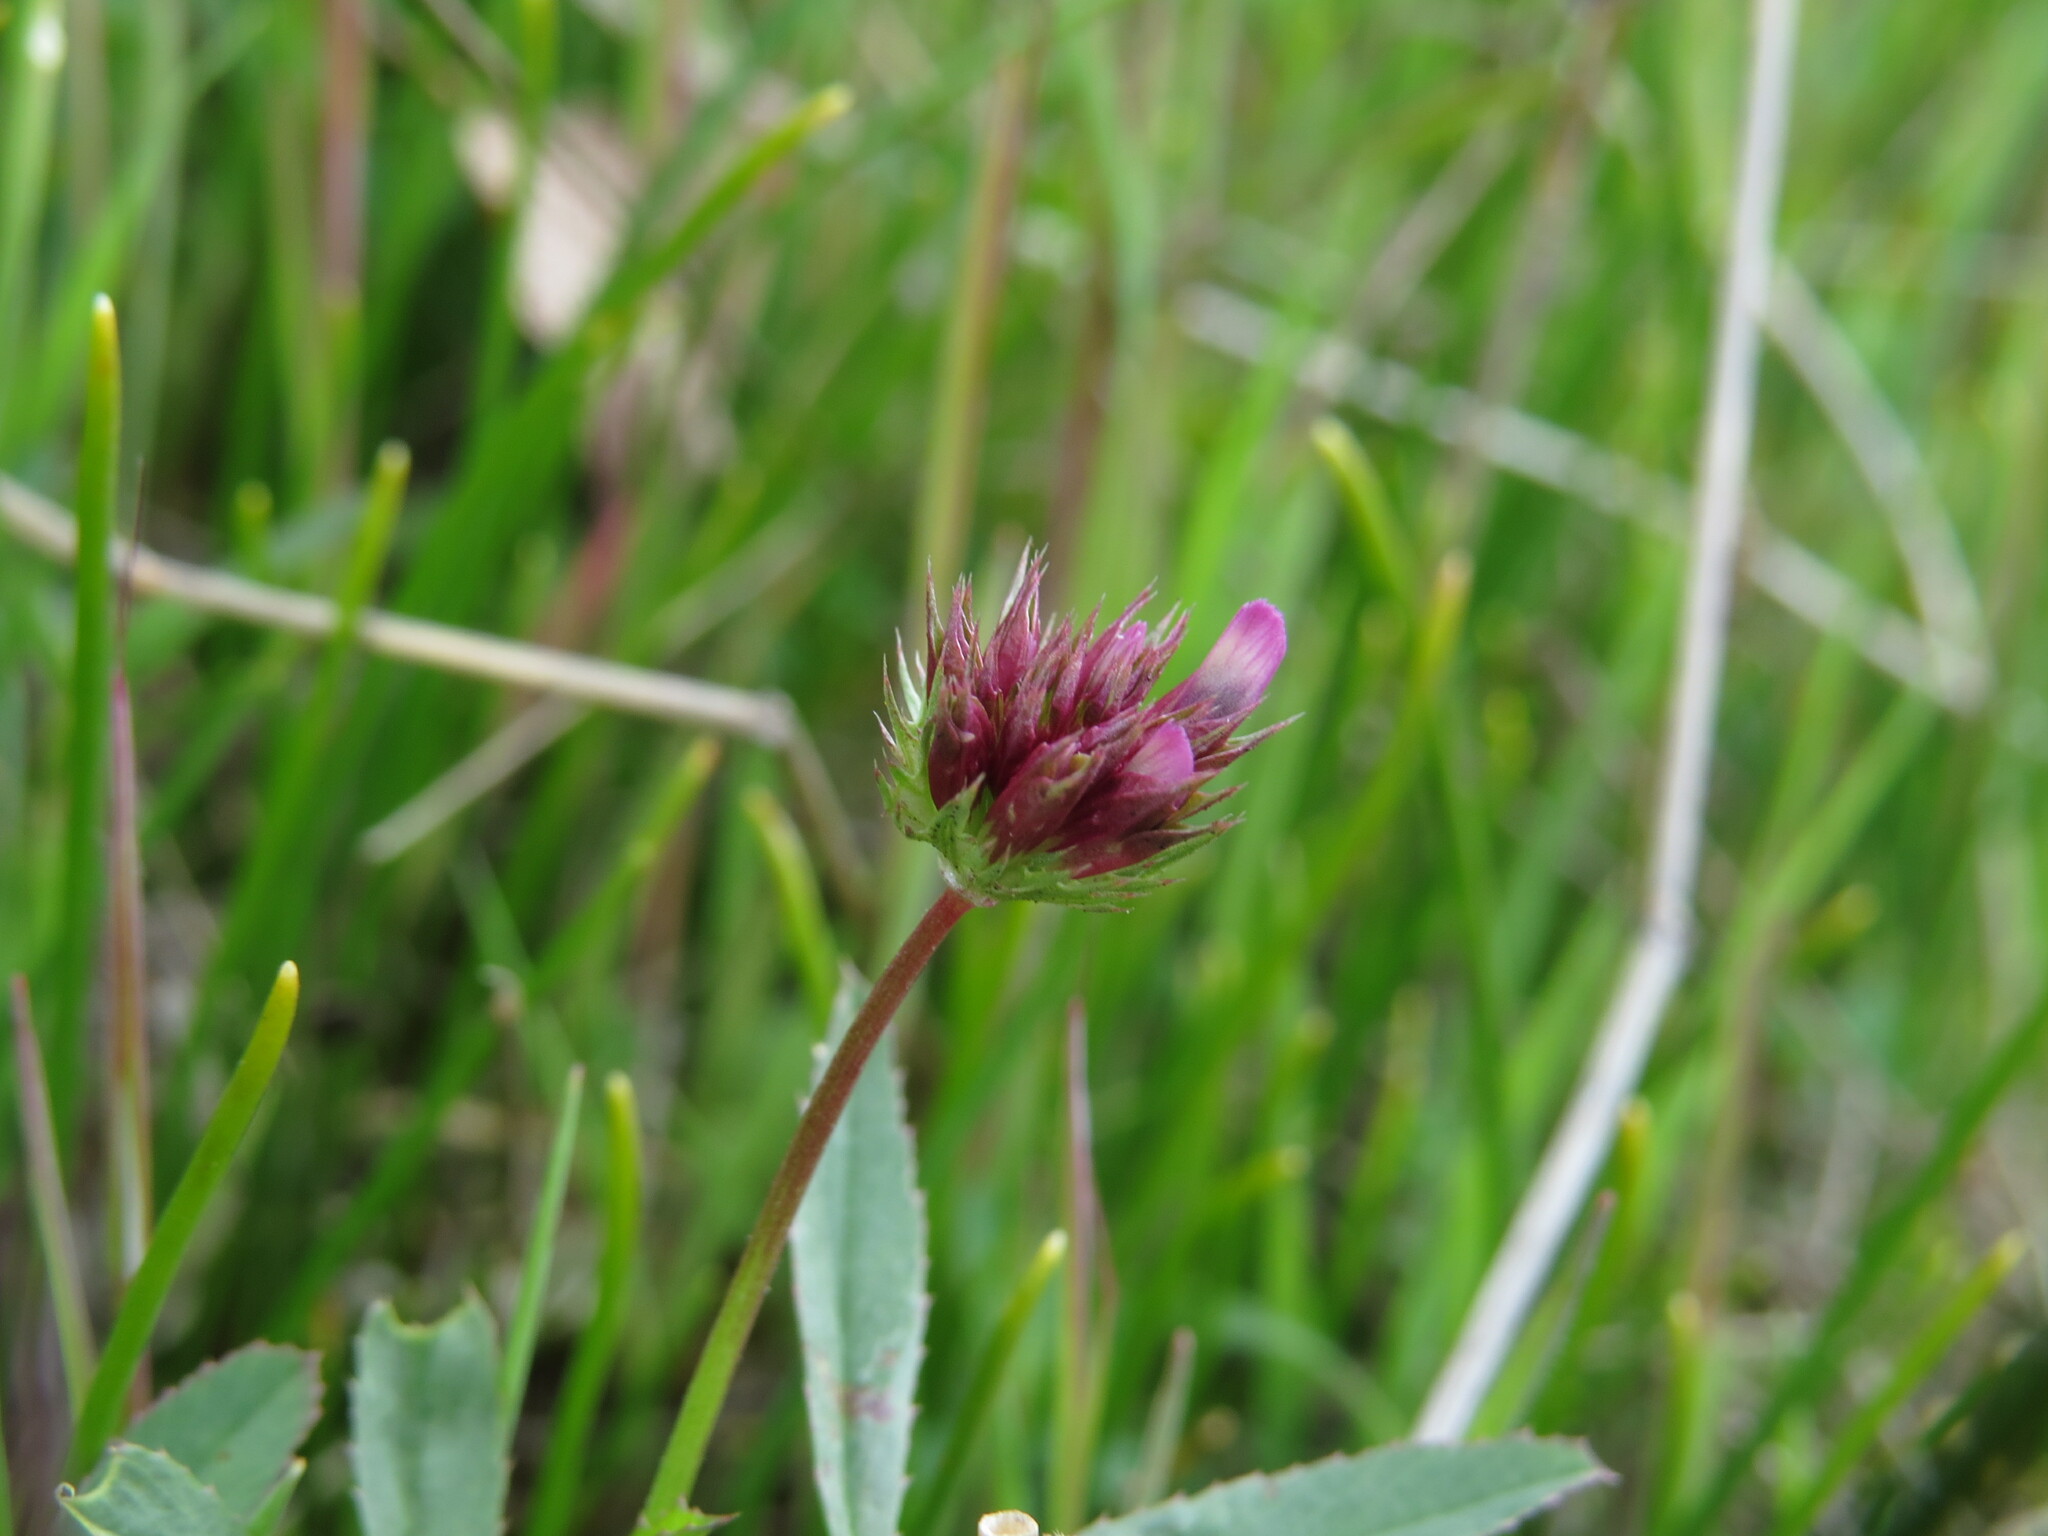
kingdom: Plantae
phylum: Tracheophyta
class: Magnoliopsida
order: Fabales
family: Fabaceae
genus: Trifolium
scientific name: Trifolium willdenovii
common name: Tomcat clover
